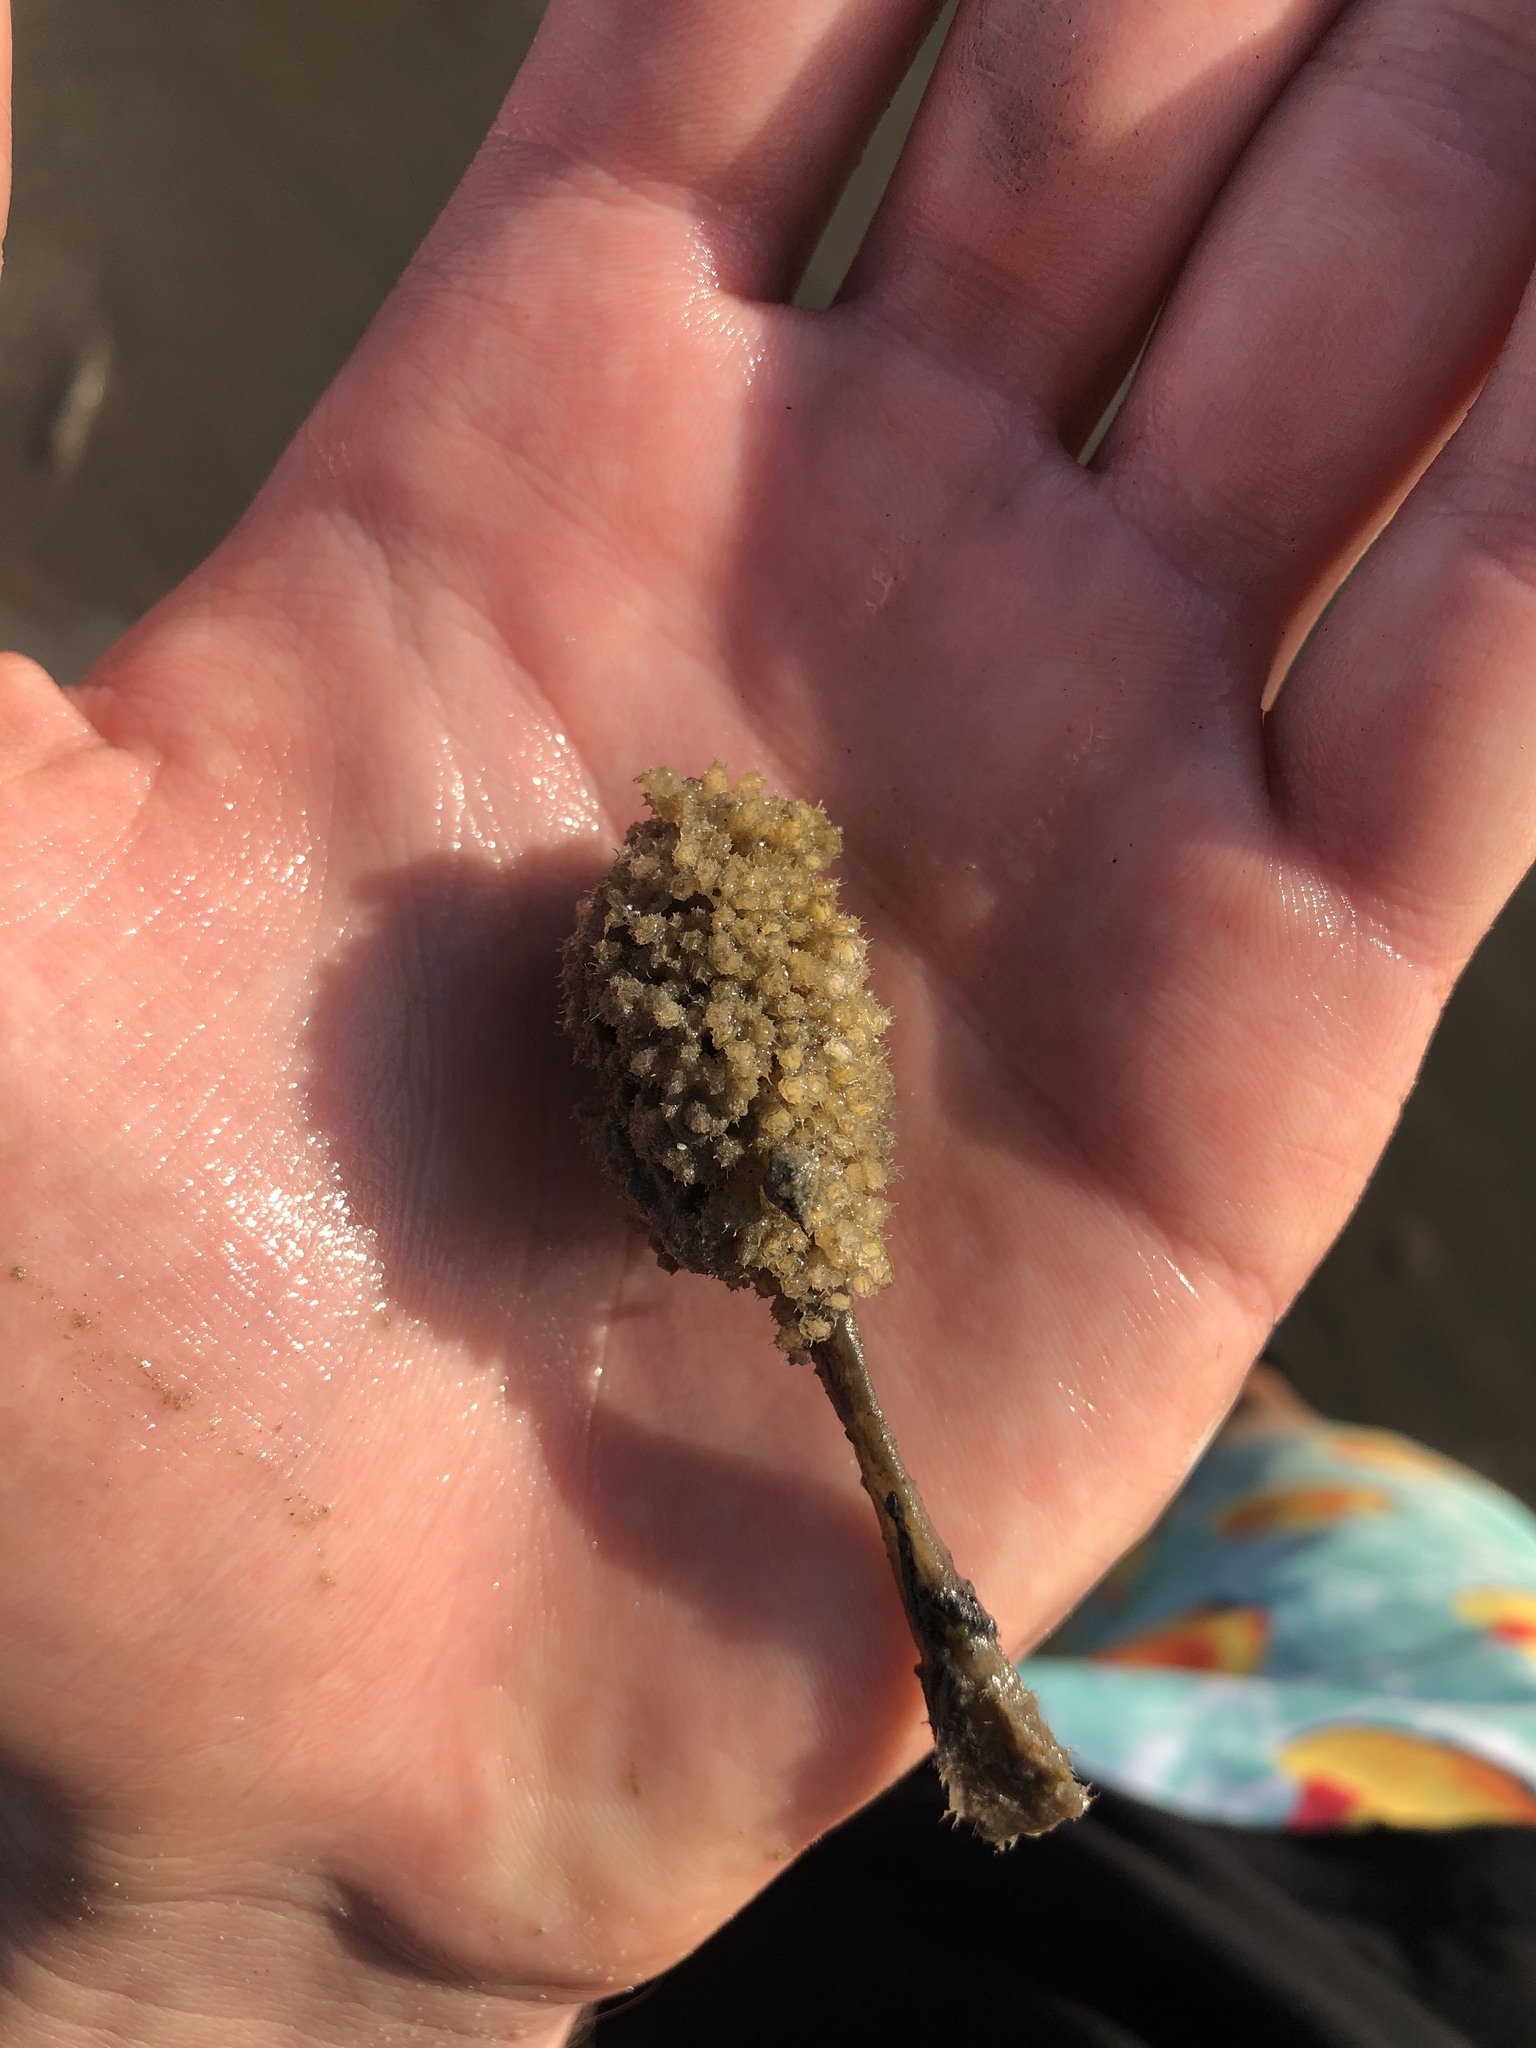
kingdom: Animalia
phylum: Mollusca
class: Gastropoda
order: Neogastropoda
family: Nassariidae
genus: Ilyanassa
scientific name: Ilyanassa obsoleta
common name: Eastern mudsnail
